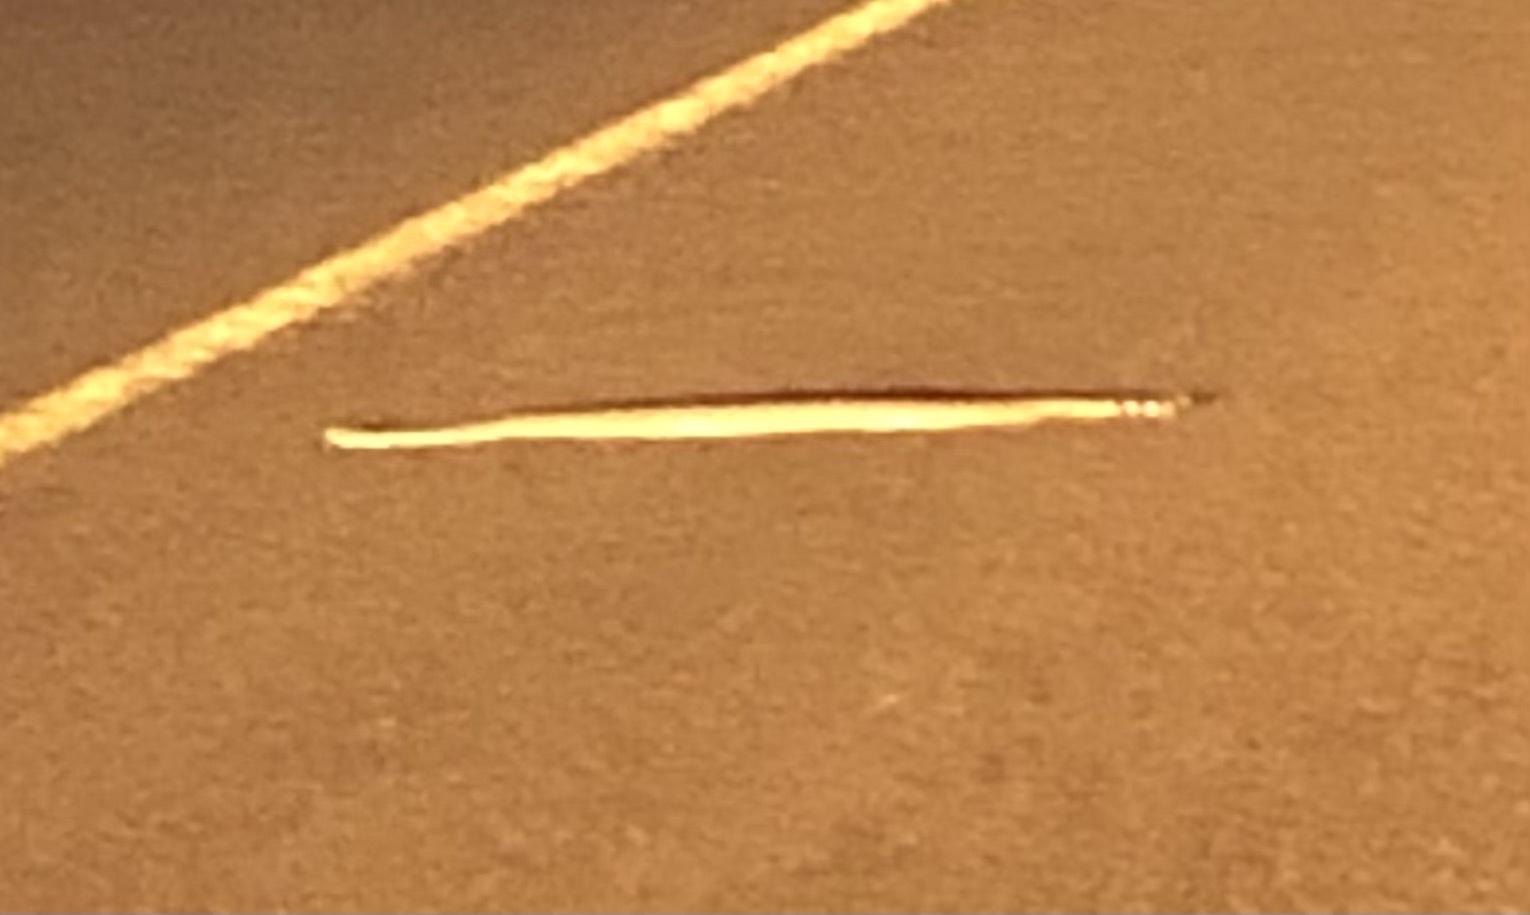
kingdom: Animalia
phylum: Chordata
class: Squamata
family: Viperidae
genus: Crotalus
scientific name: Crotalus atrox
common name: Western diamond-backed rattlesnake
